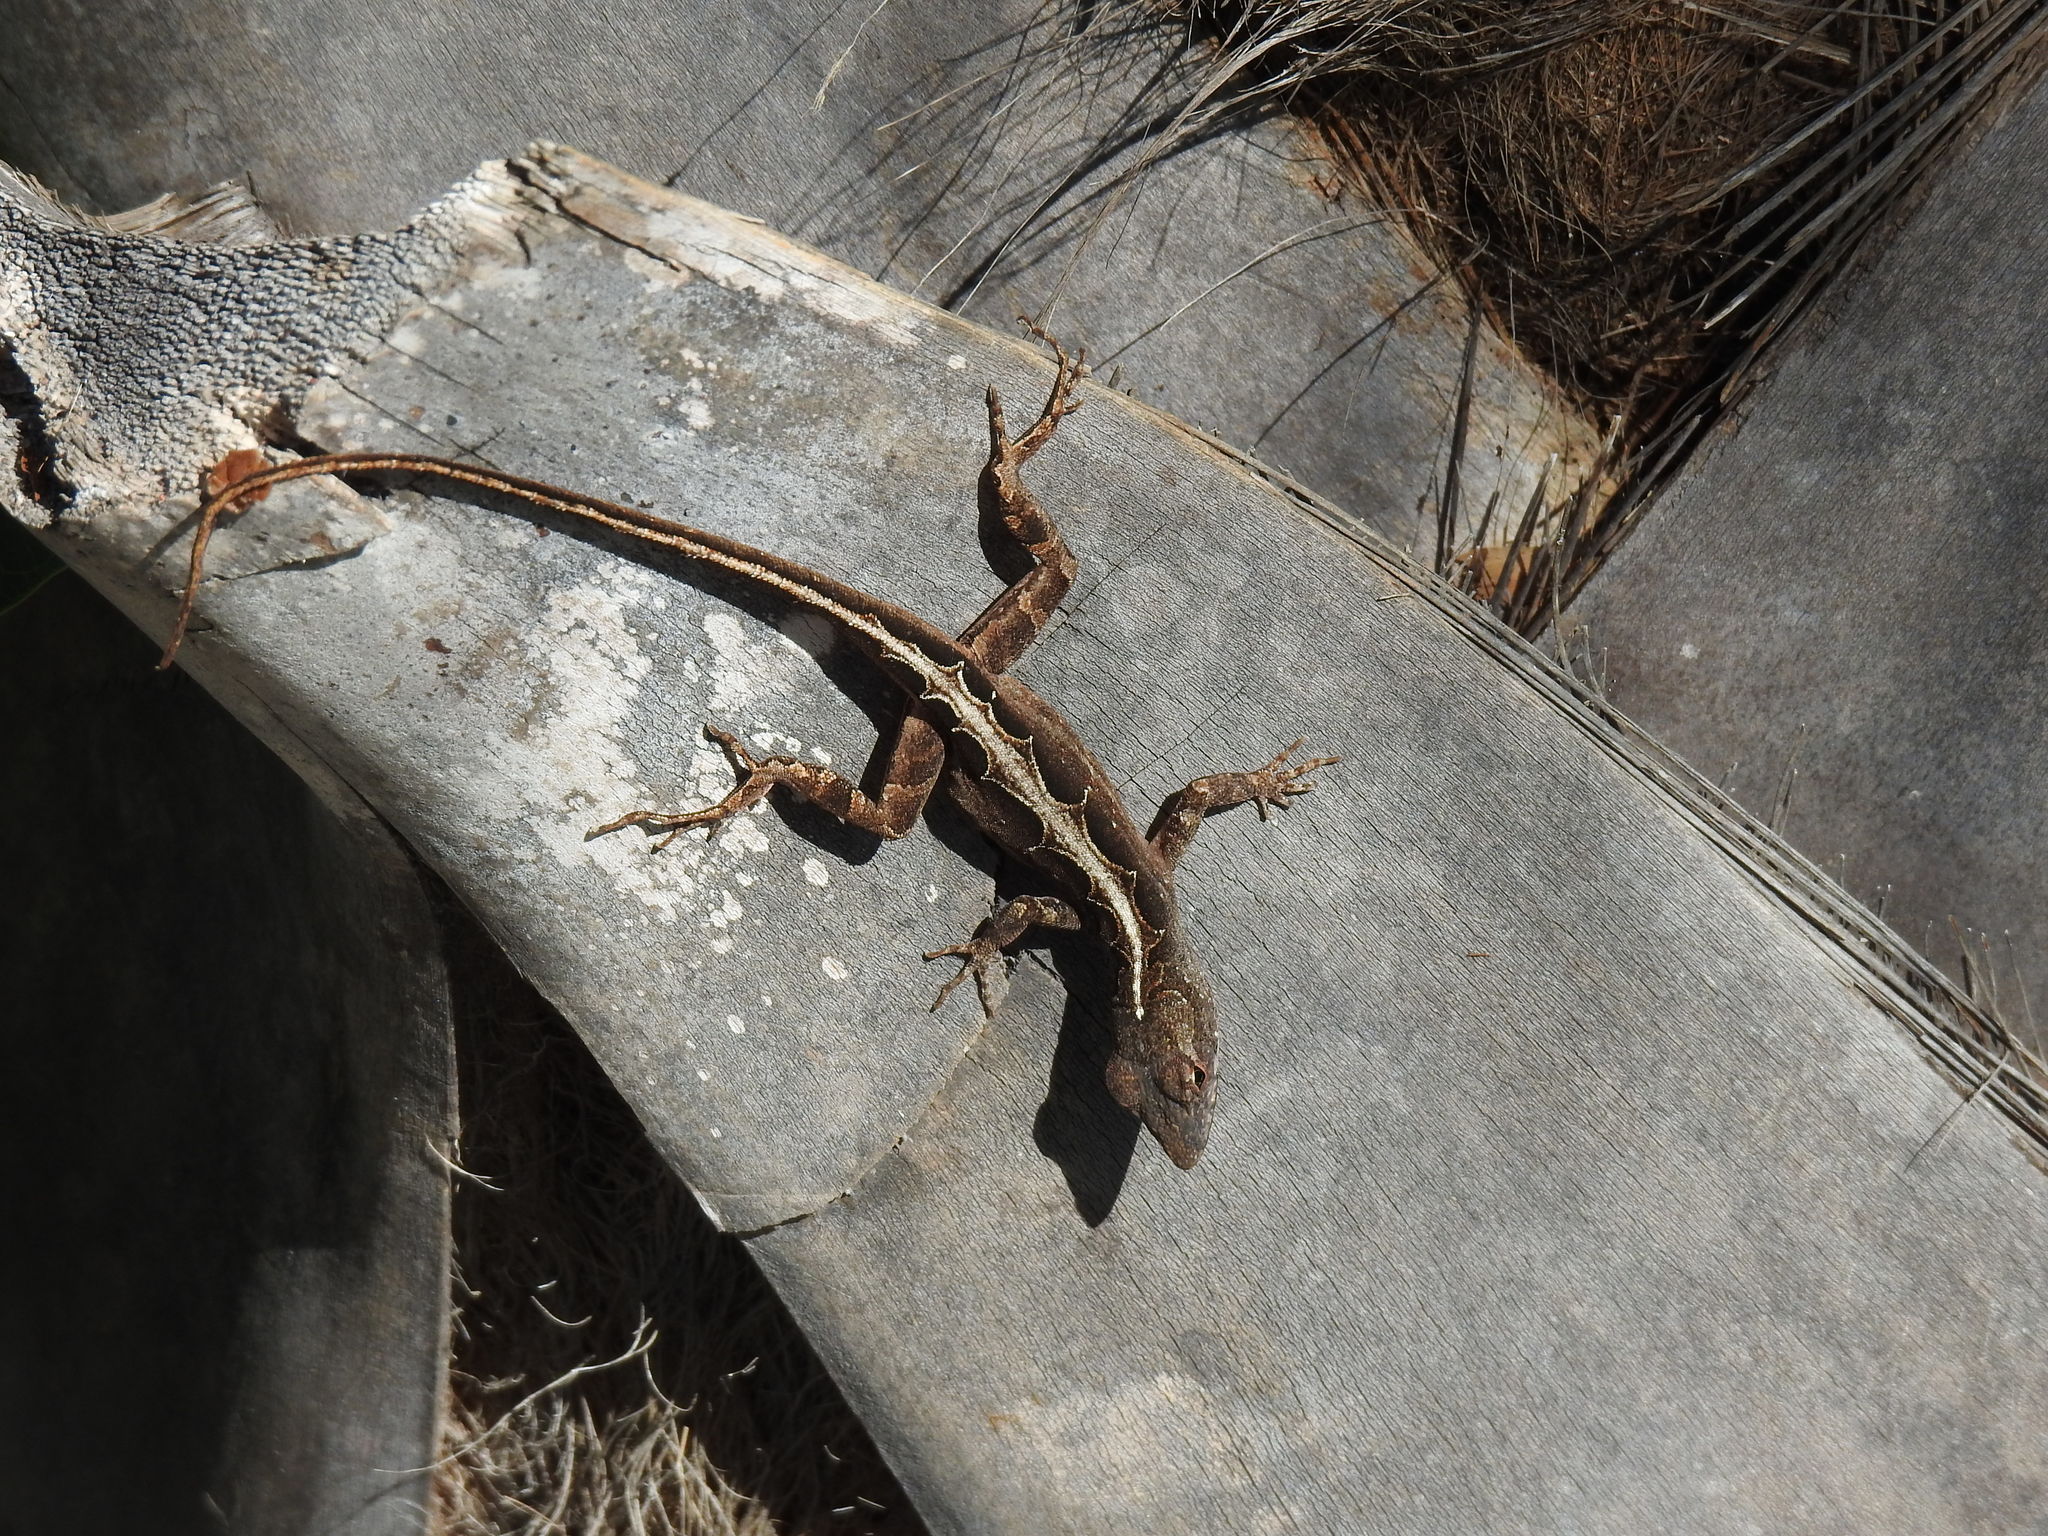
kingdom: Animalia
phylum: Chordata
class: Squamata
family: Dactyloidae
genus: Anolis
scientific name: Anolis sagrei
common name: Brown anole
